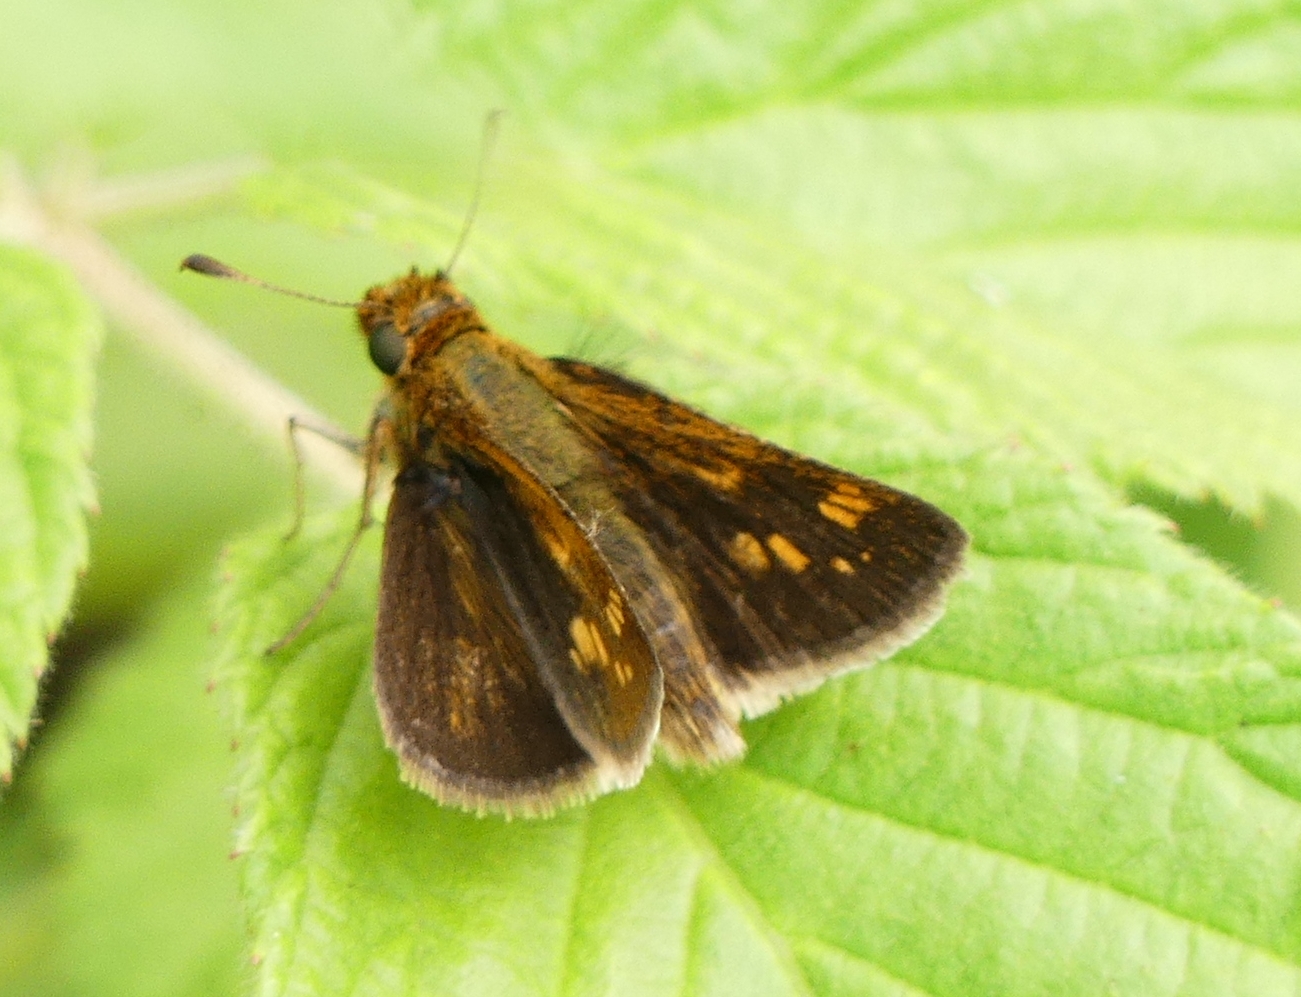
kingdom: Animalia
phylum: Arthropoda
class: Insecta
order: Lepidoptera
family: Hesperiidae
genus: Polites
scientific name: Polites coras
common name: Peck's skipper
